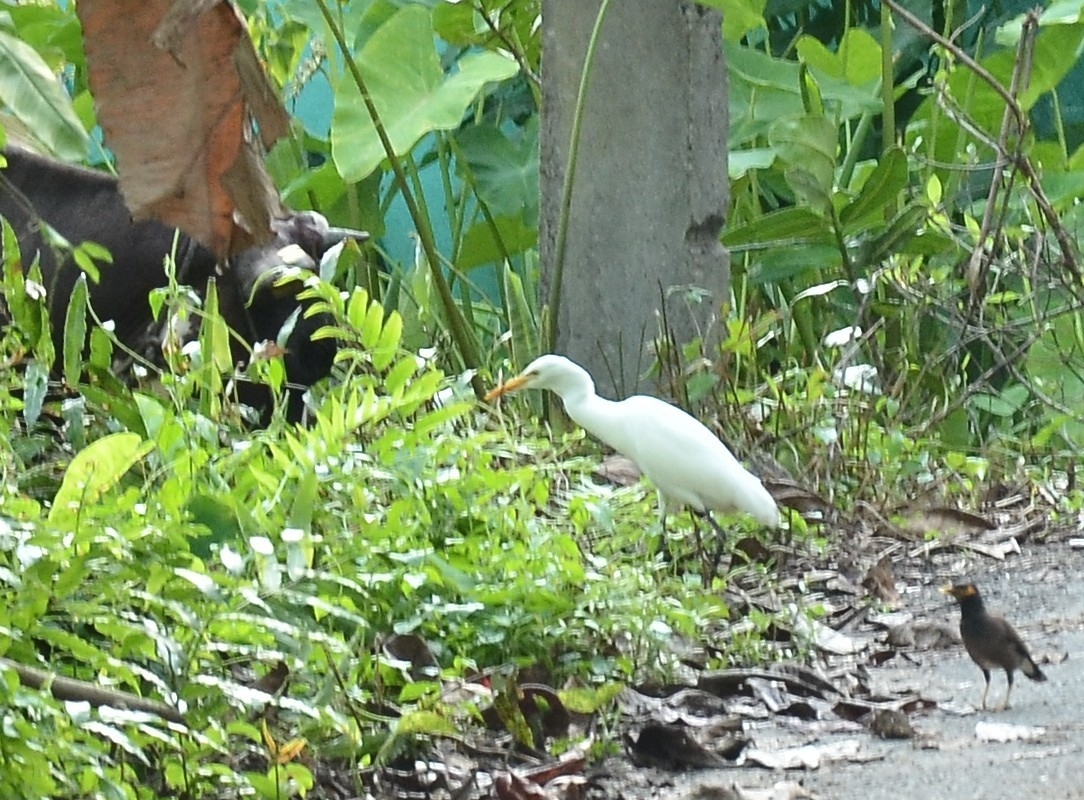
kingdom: Animalia
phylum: Chordata
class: Aves
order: Pelecaniformes
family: Ardeidae
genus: Bubulcus
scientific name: Bubulcus coromandus
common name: Eastern cattle egret
